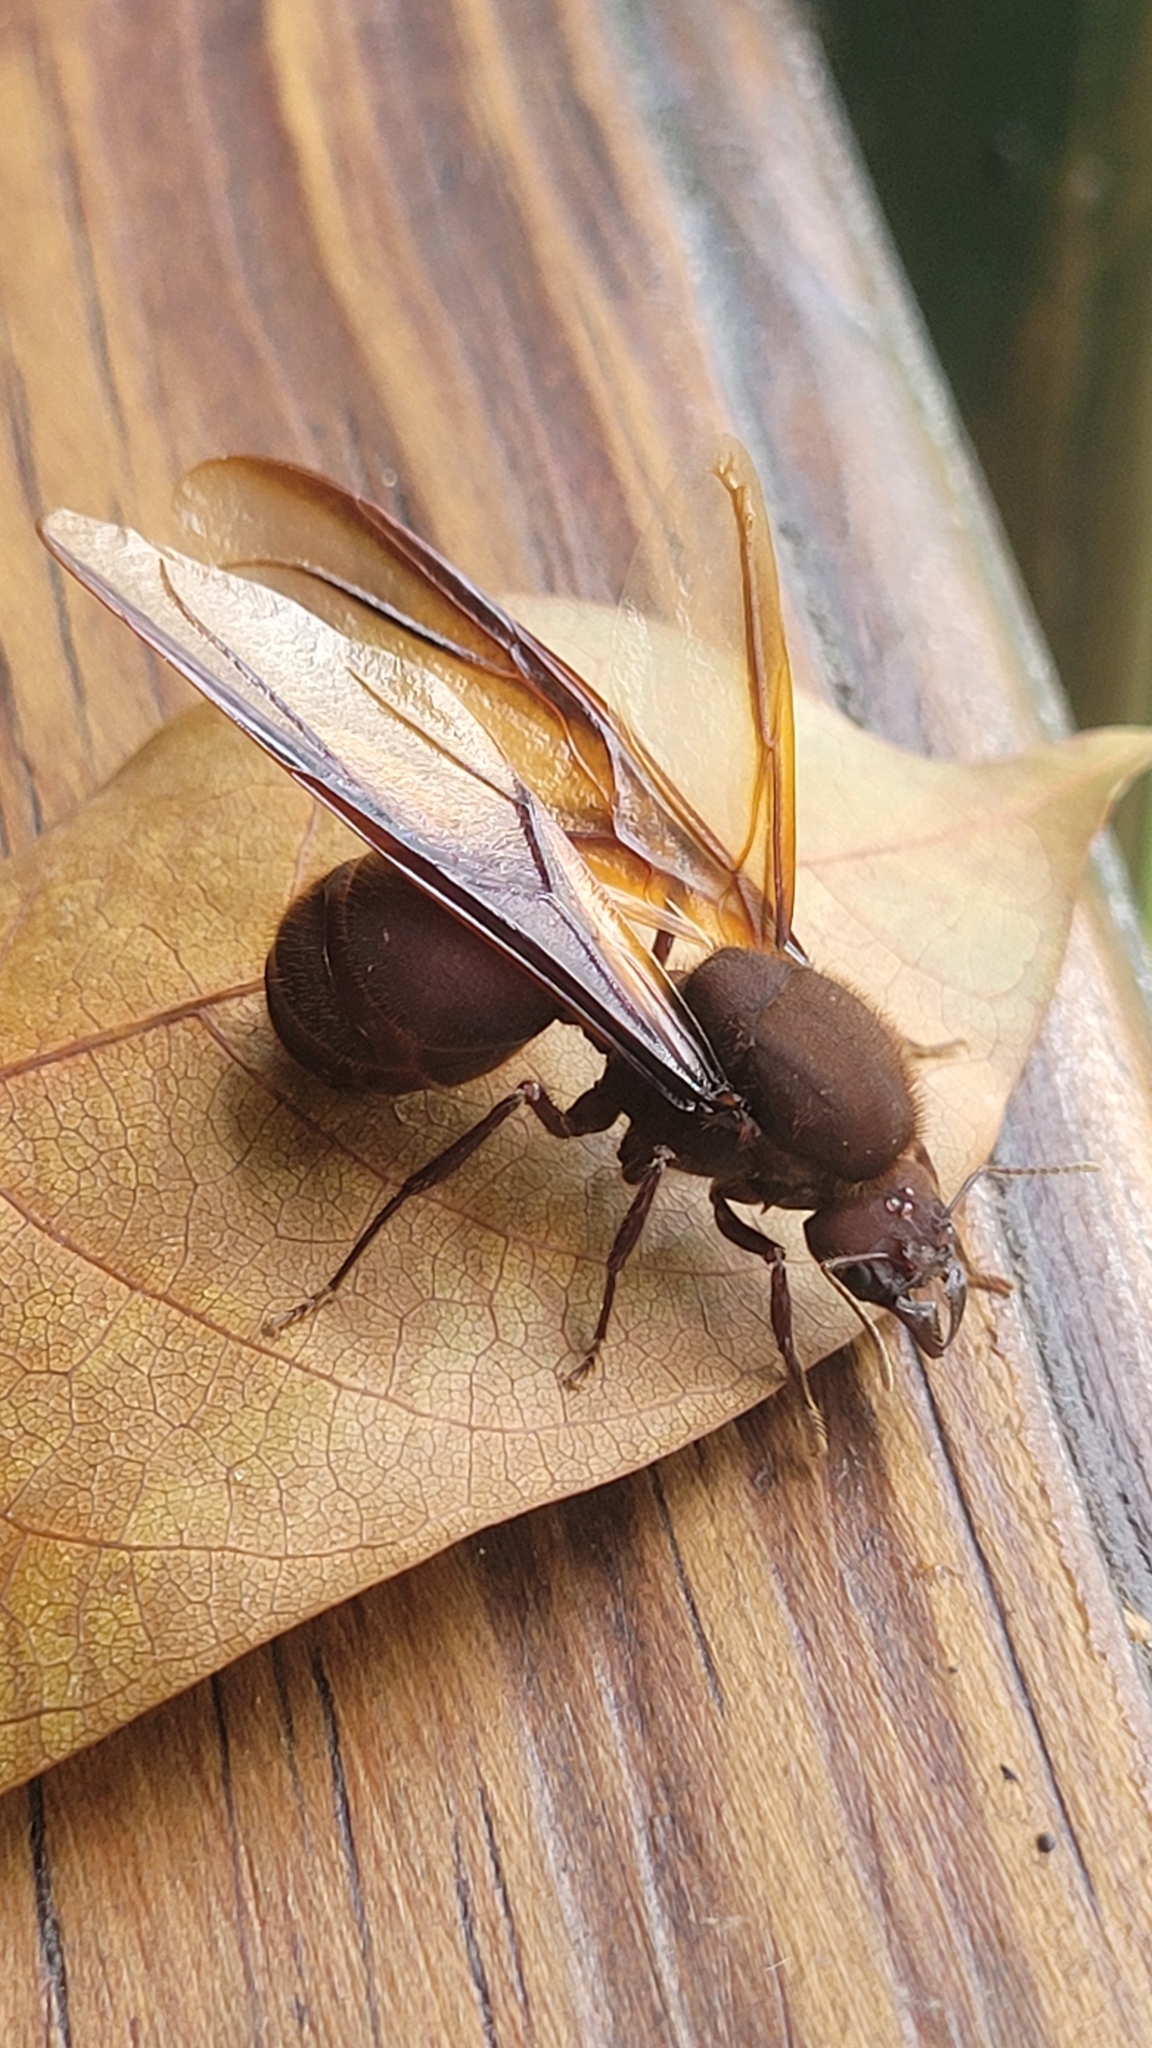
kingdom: Animalia
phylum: Arthropoda
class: Insecta
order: Hymenoptera
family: Formicidae
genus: Atta
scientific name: Atta cephalotes
